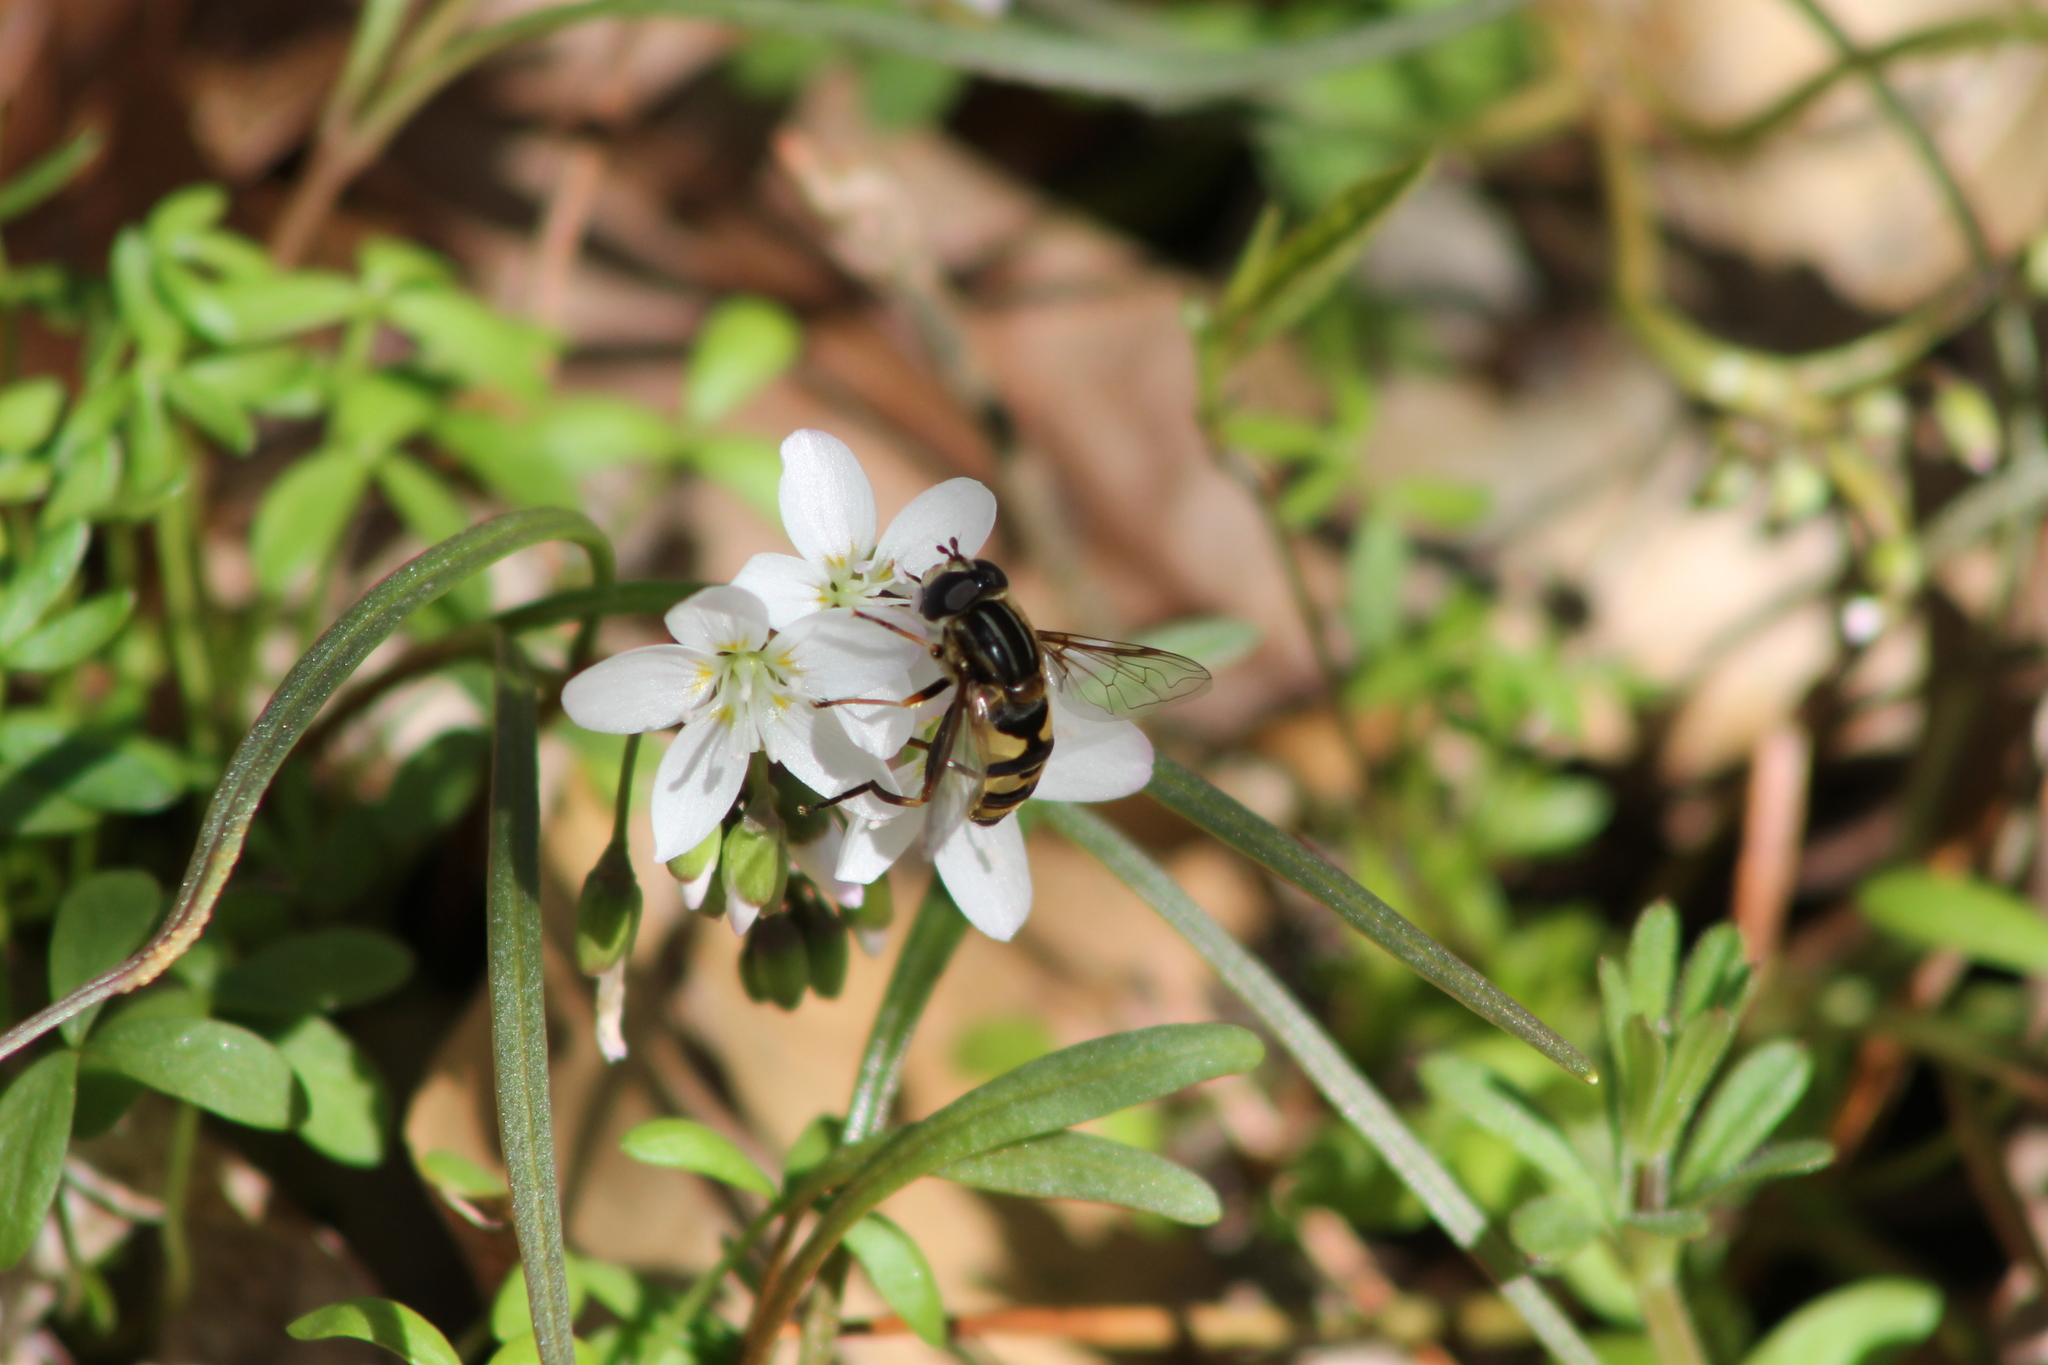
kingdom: Animalia
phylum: Arthropoda
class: Insecta
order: Diptera
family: Syrphidae
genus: Helophilus
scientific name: Helophilus fasciatus
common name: Narrow-headed marsh fly
